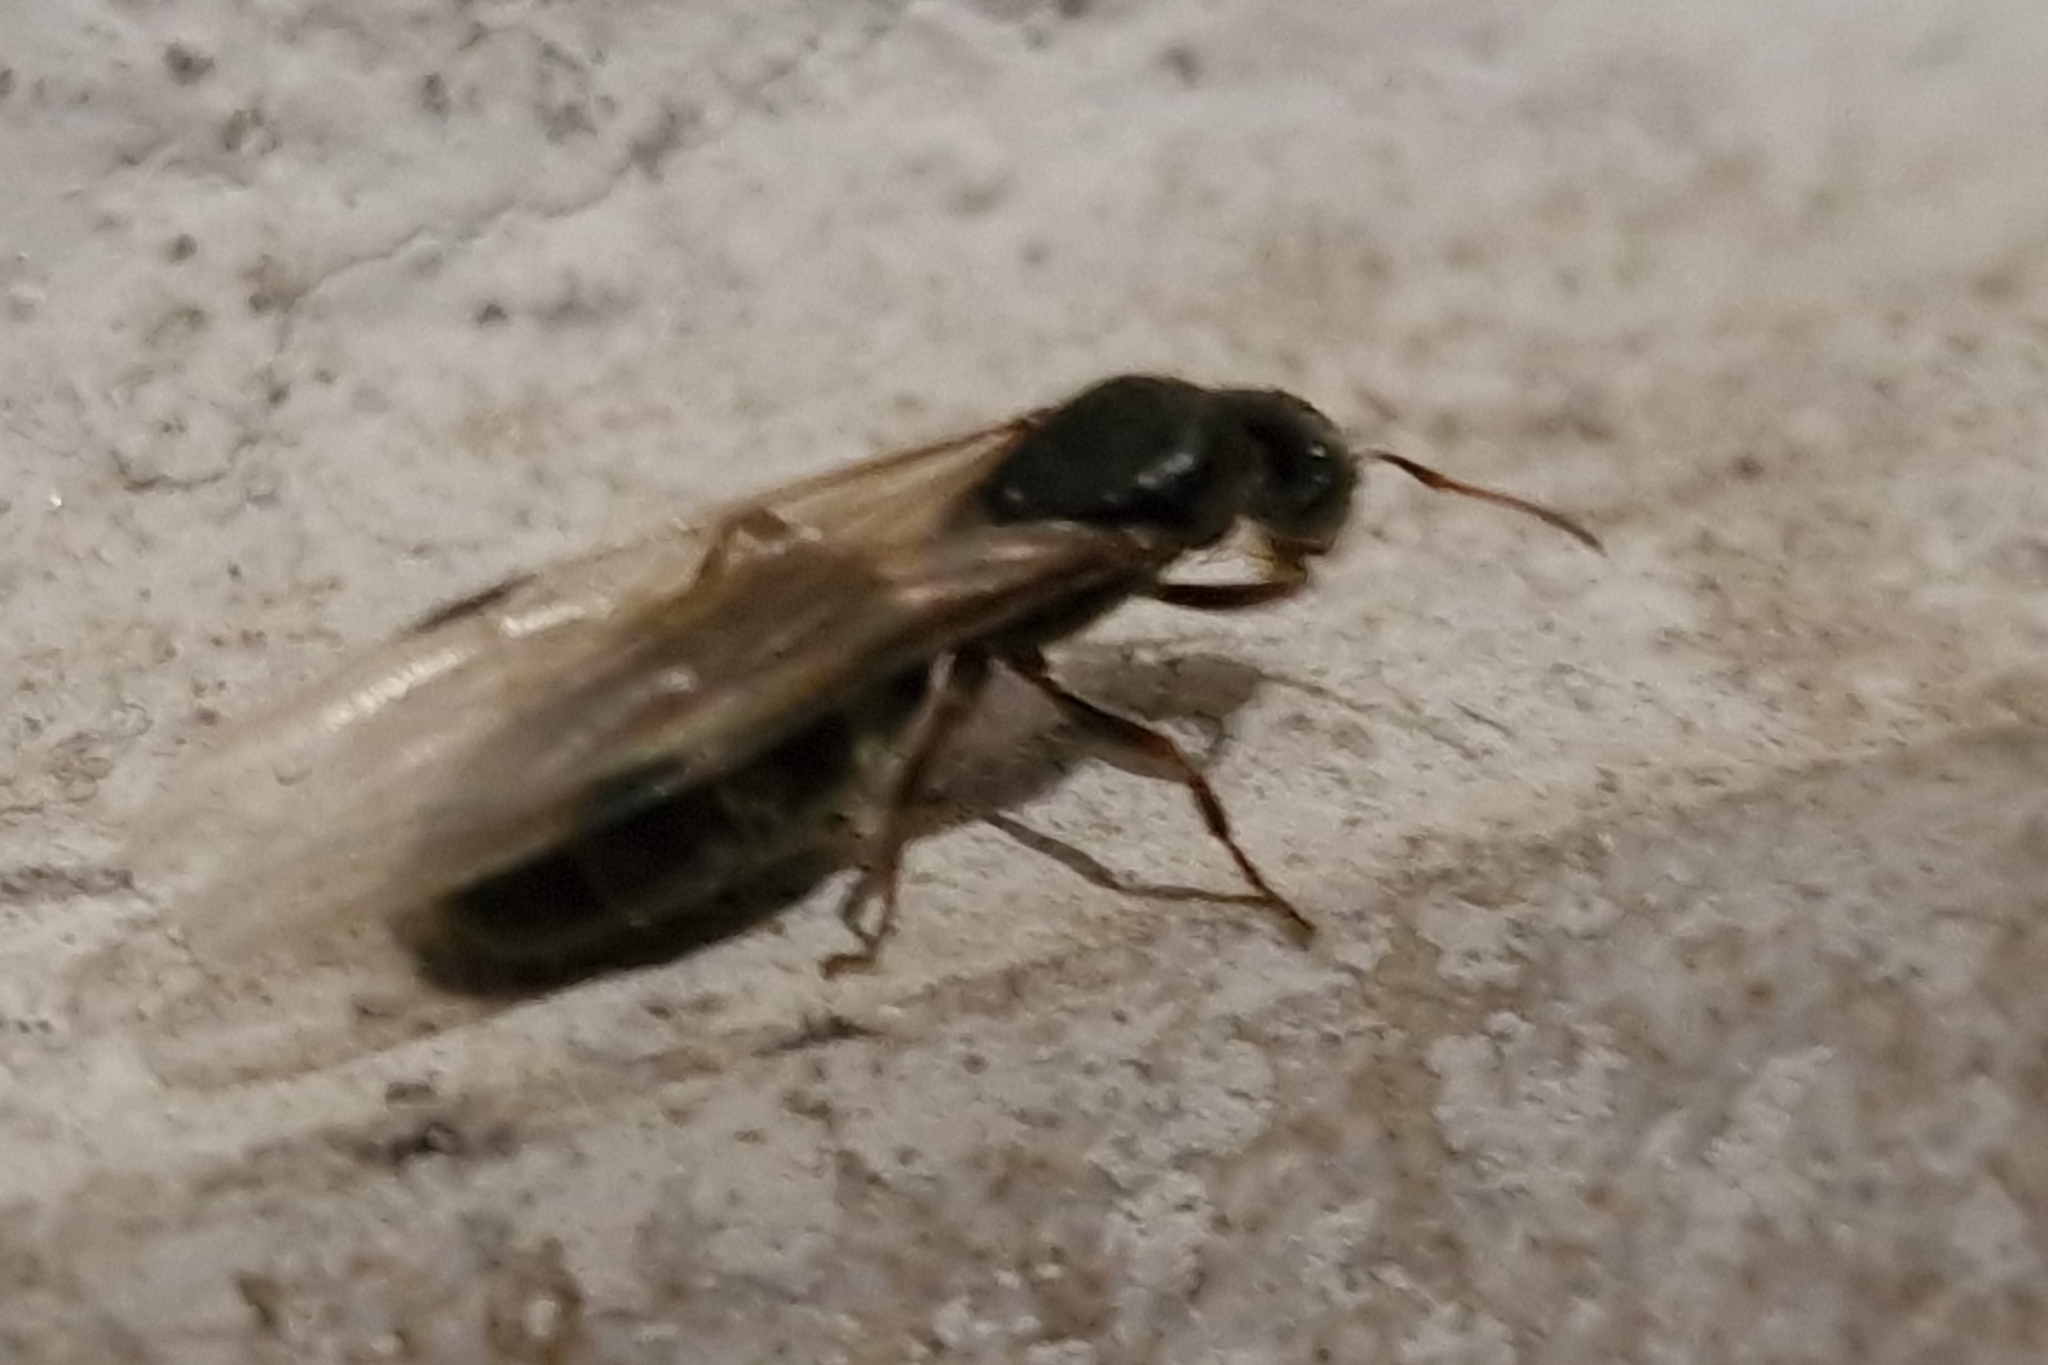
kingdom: Animalia
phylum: Arthropoda
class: Insecta
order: Hymenoptera
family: Formicidae
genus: Liometopum
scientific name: Liometopum microcephalum
